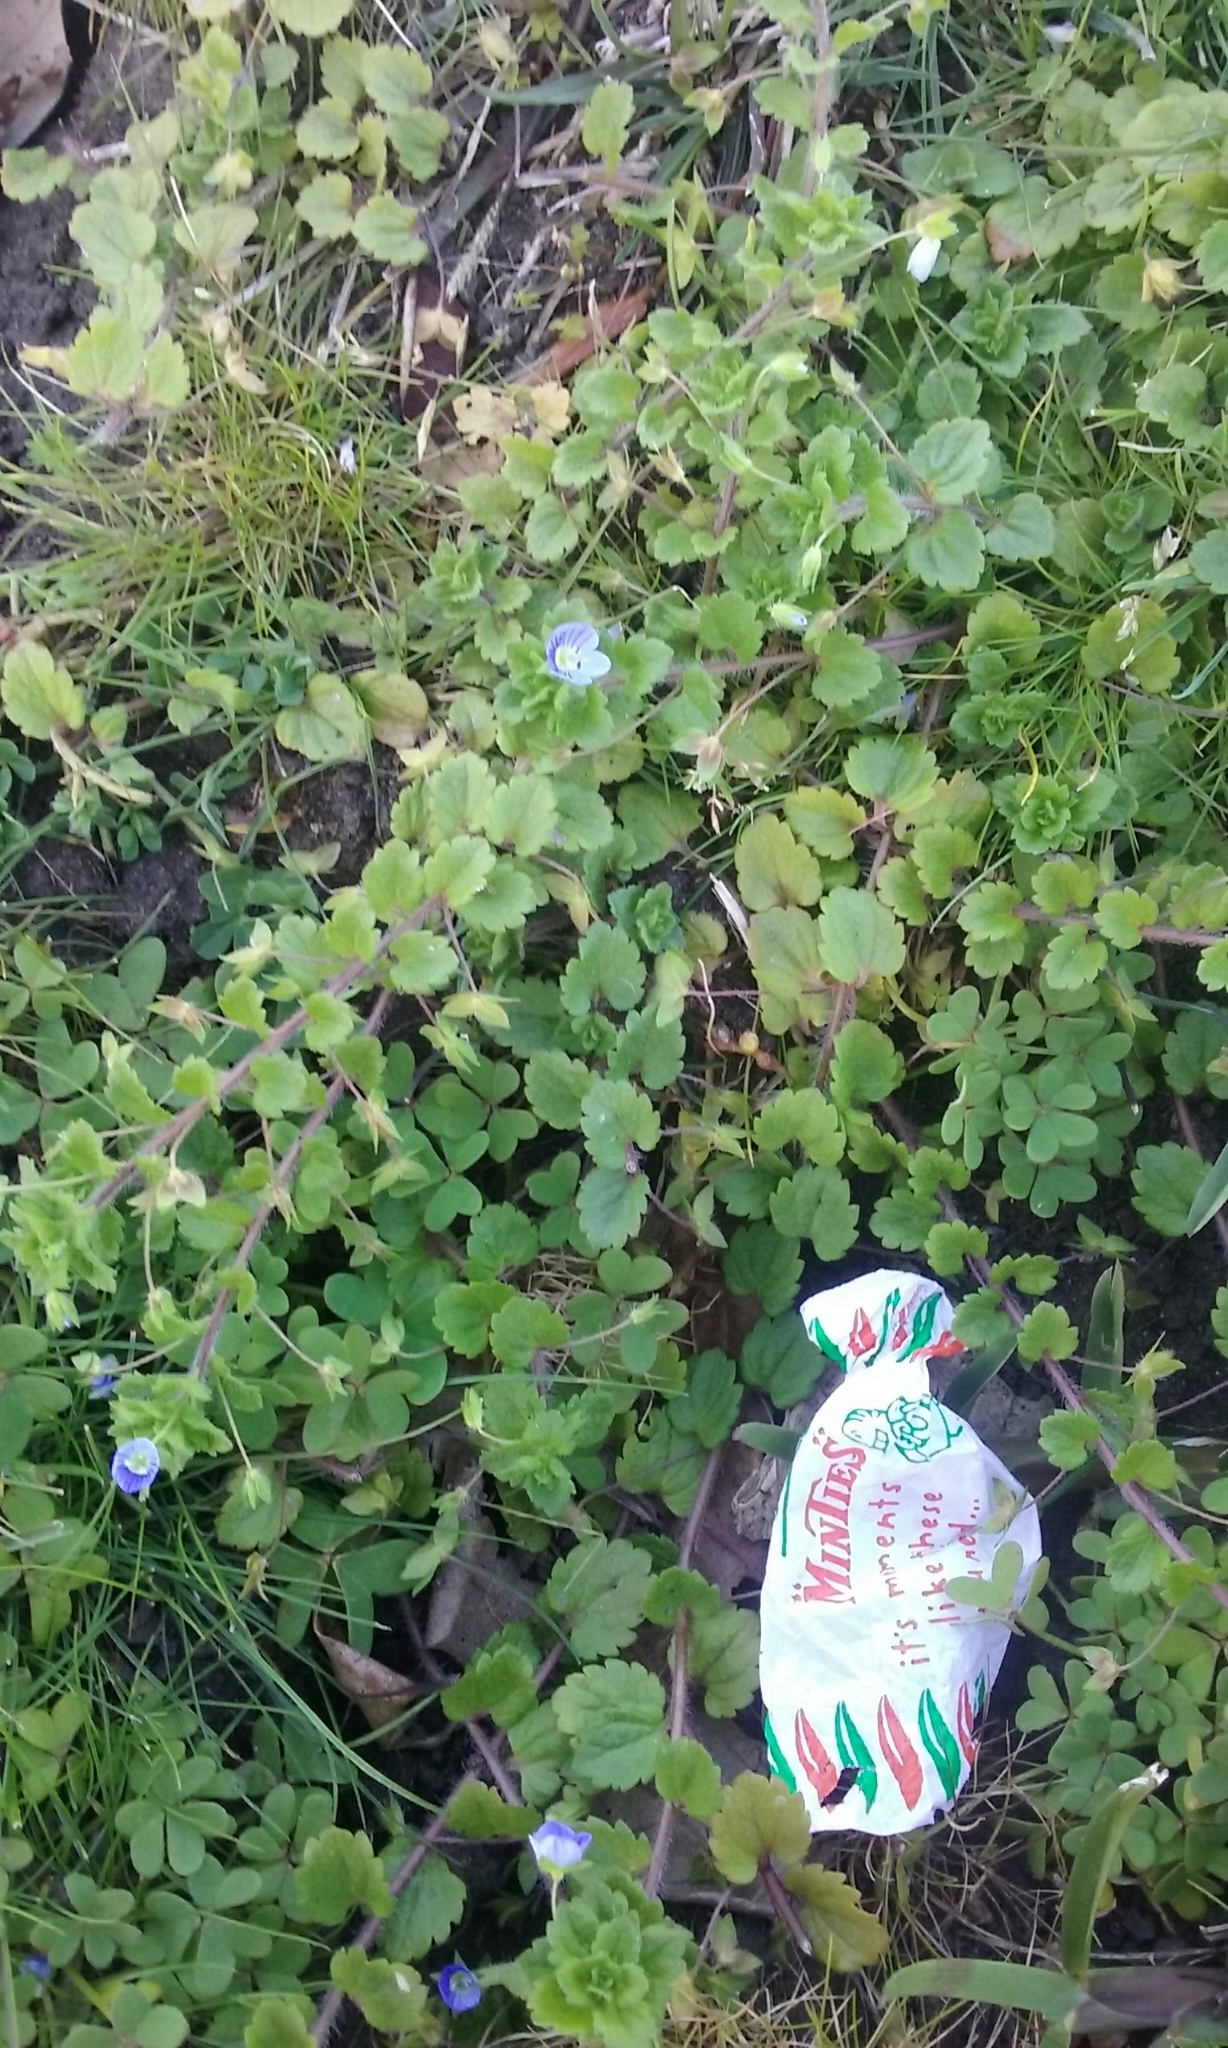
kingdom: Plantae
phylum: Tracheophyta
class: Magnoliopsida
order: Lamiales
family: Plantaginaceae
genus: Veronica
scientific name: Veronica persica
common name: Common field-speedwell
